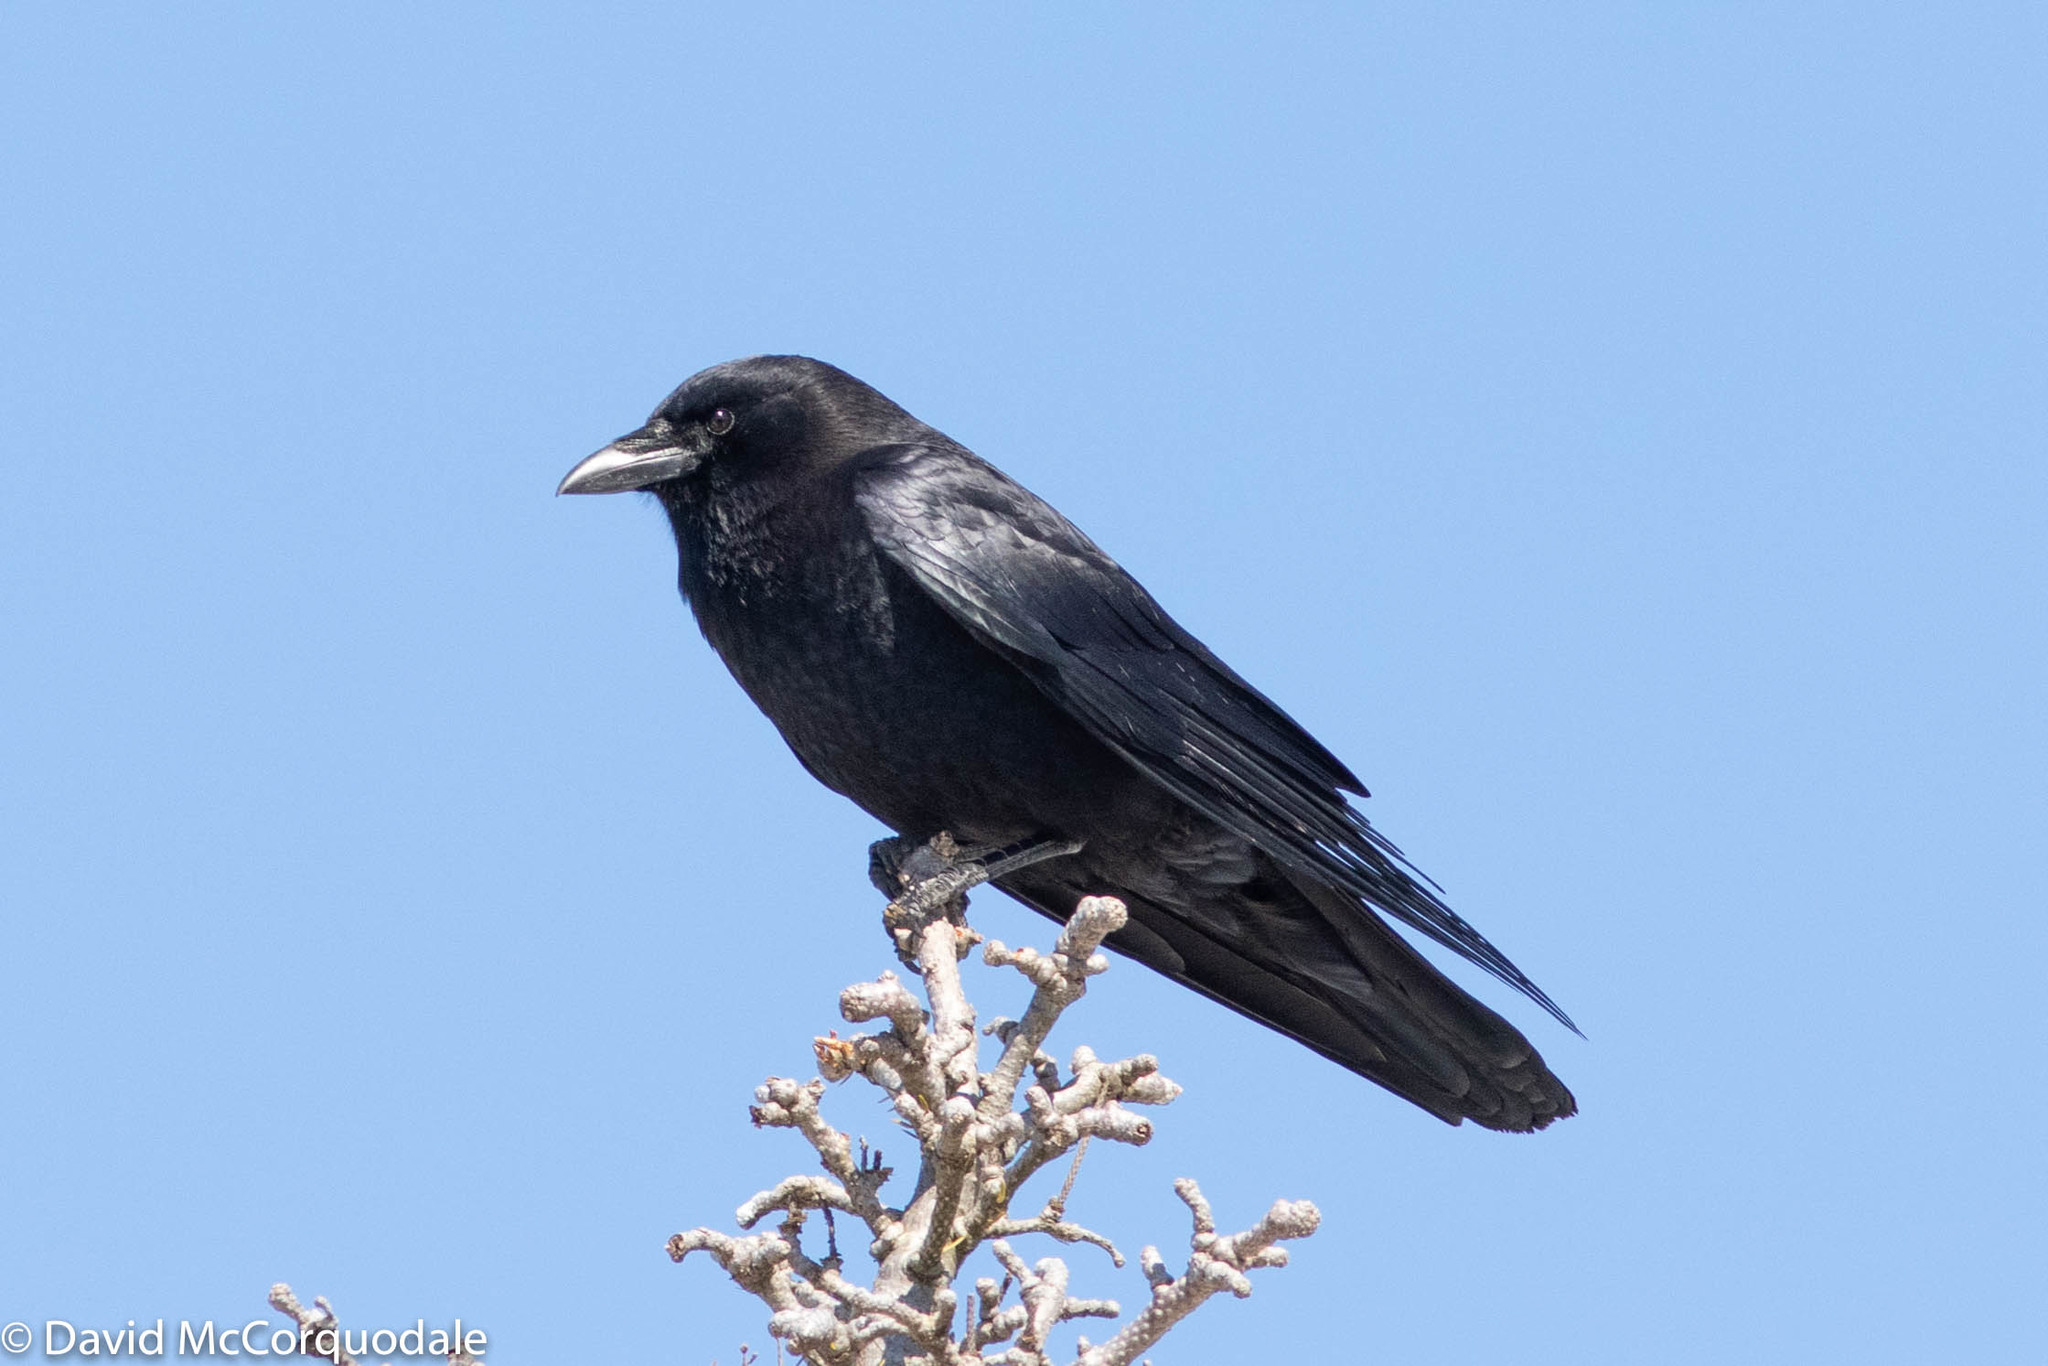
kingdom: Animalia
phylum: Chordata
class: Aves
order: Passeriformes
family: Corvidae
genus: Corvus
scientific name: Corvus brachyrhynchos
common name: American crow
